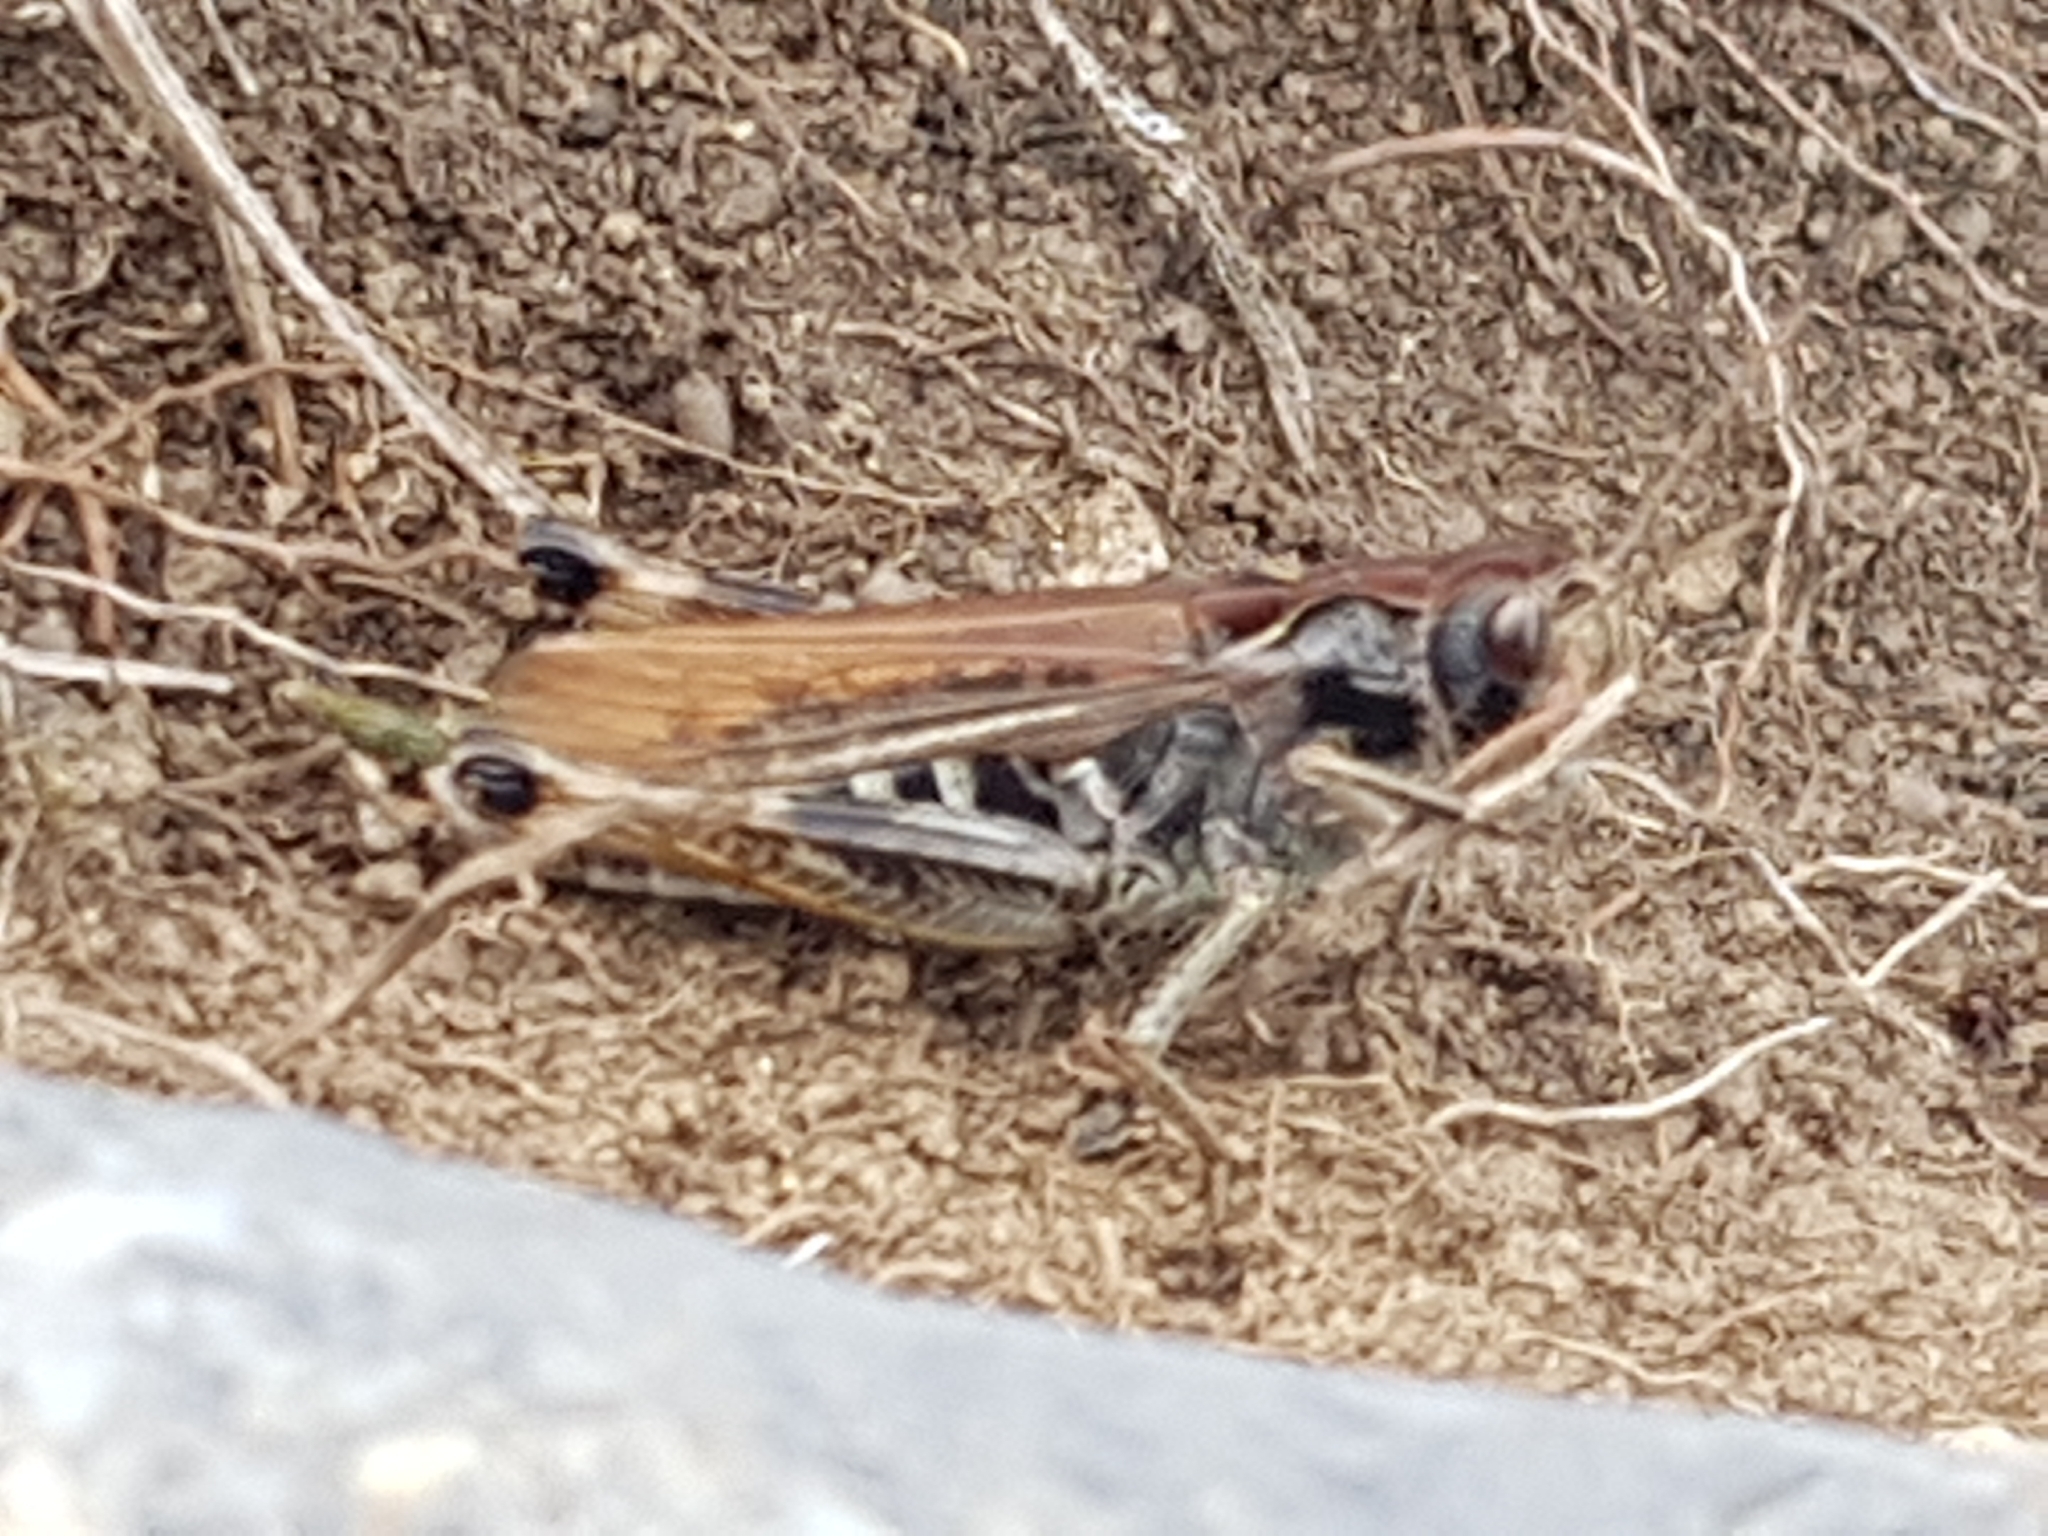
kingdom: Animalia
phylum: Arthropoda
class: Insecta
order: Orthoptera
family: Acrididae
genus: Gomphocerus
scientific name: Gomphocerus sibiricus
